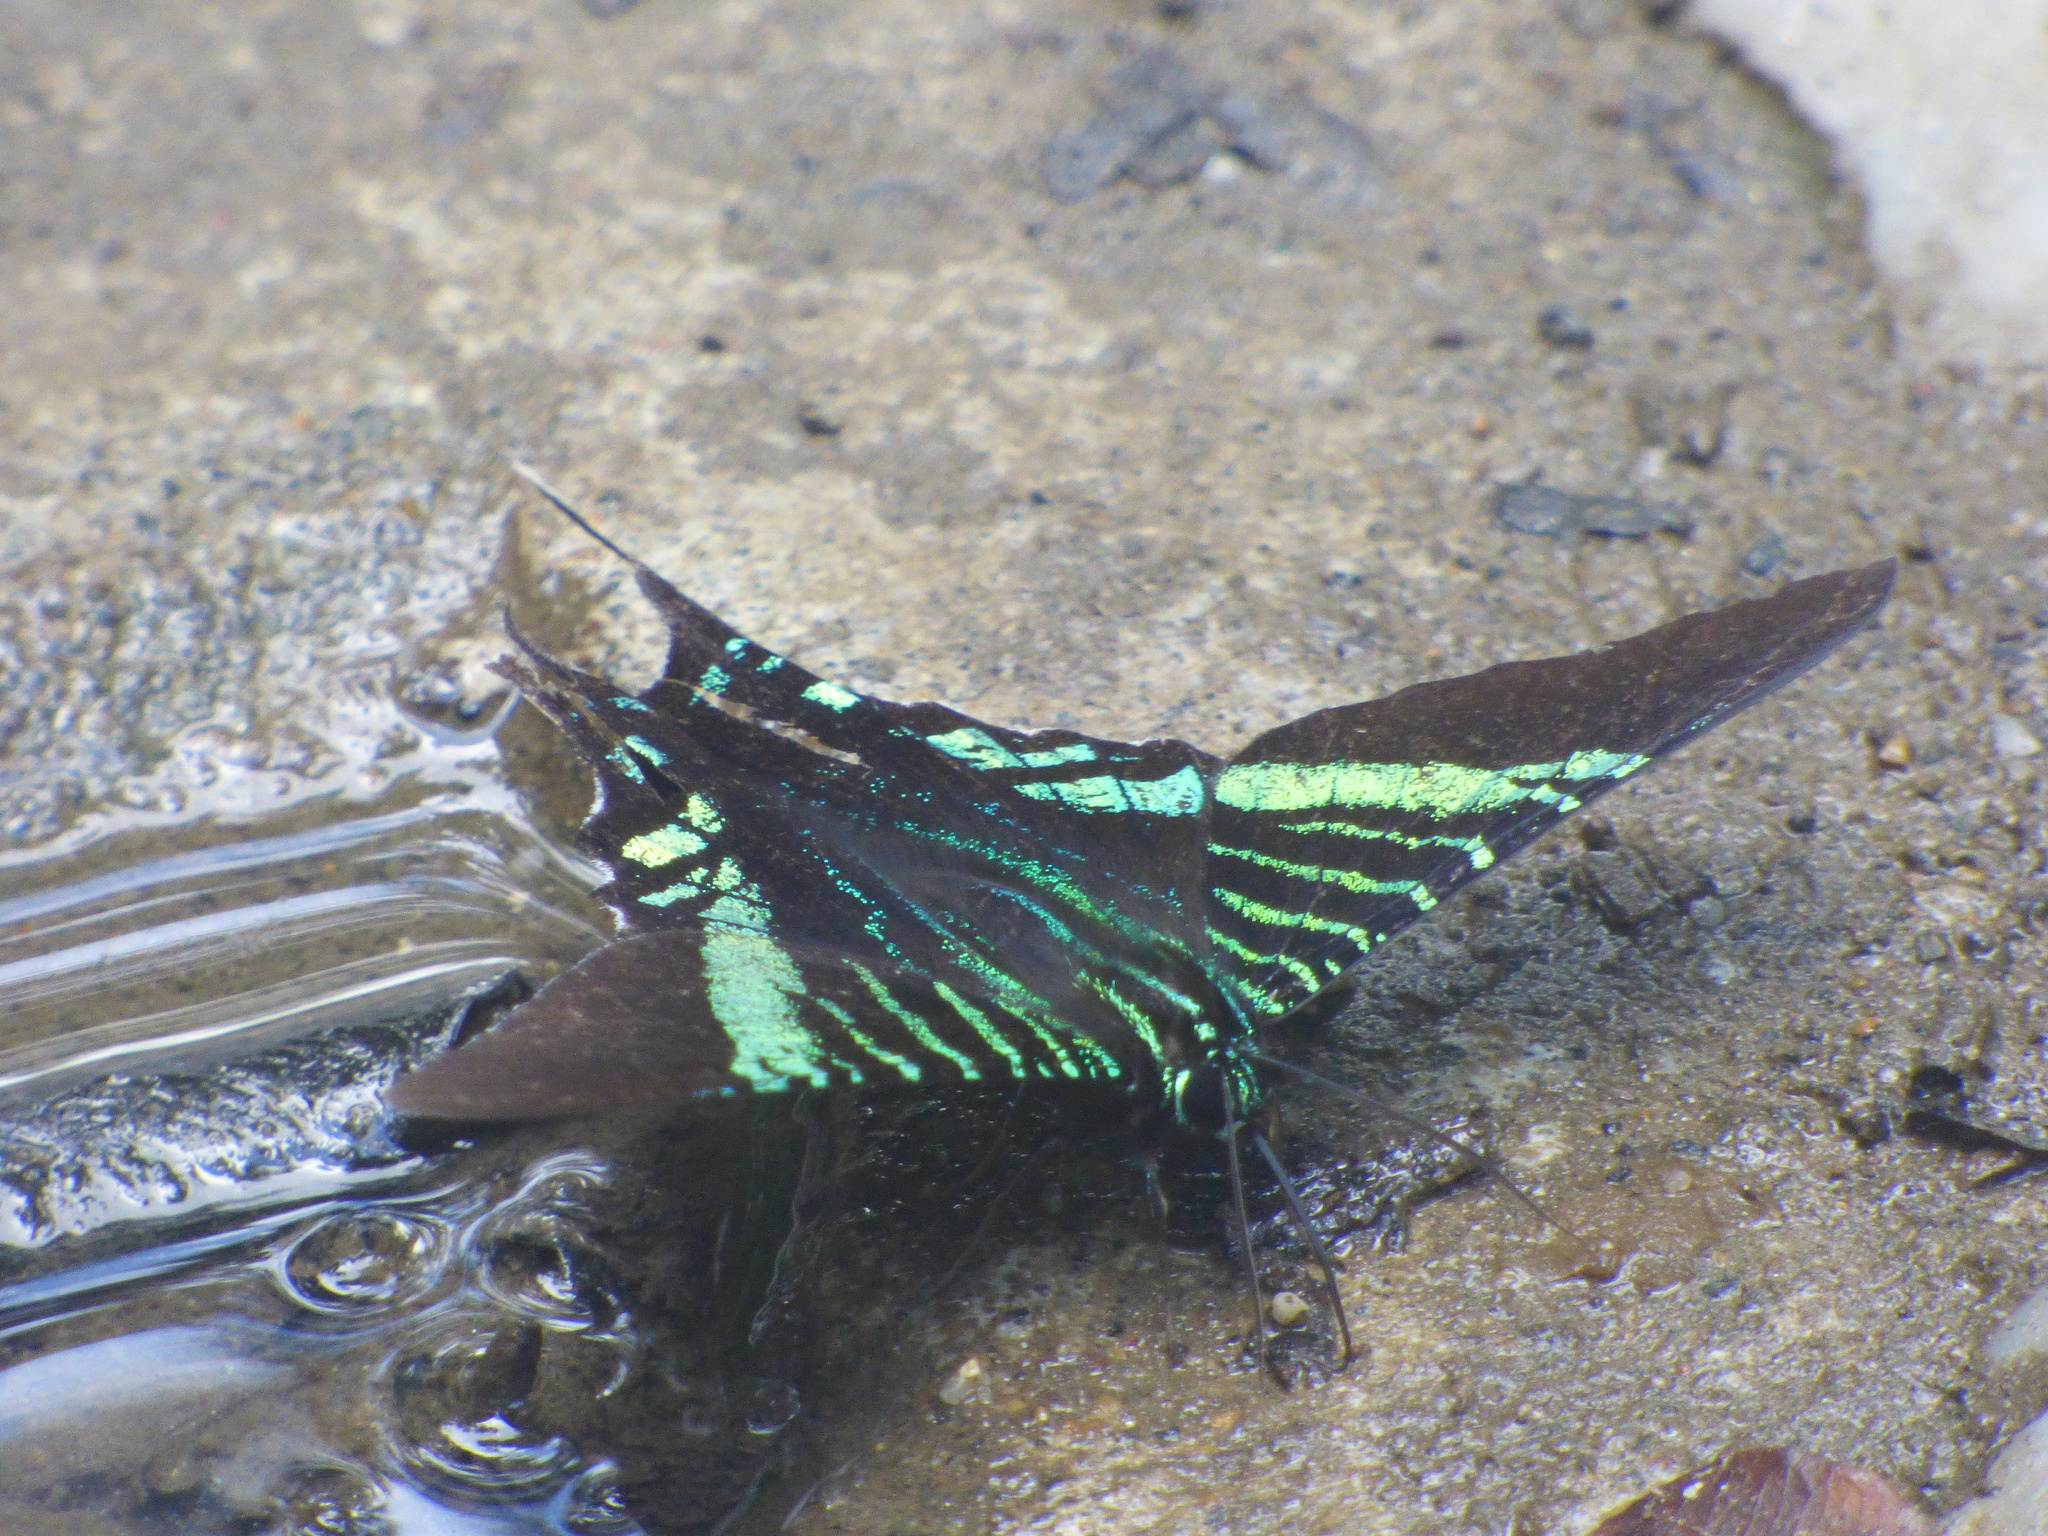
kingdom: Animalia
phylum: Arthropoda
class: Insecta
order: Lepidoptera
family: Uraniidae
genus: Urania
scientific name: Urania fulgens
